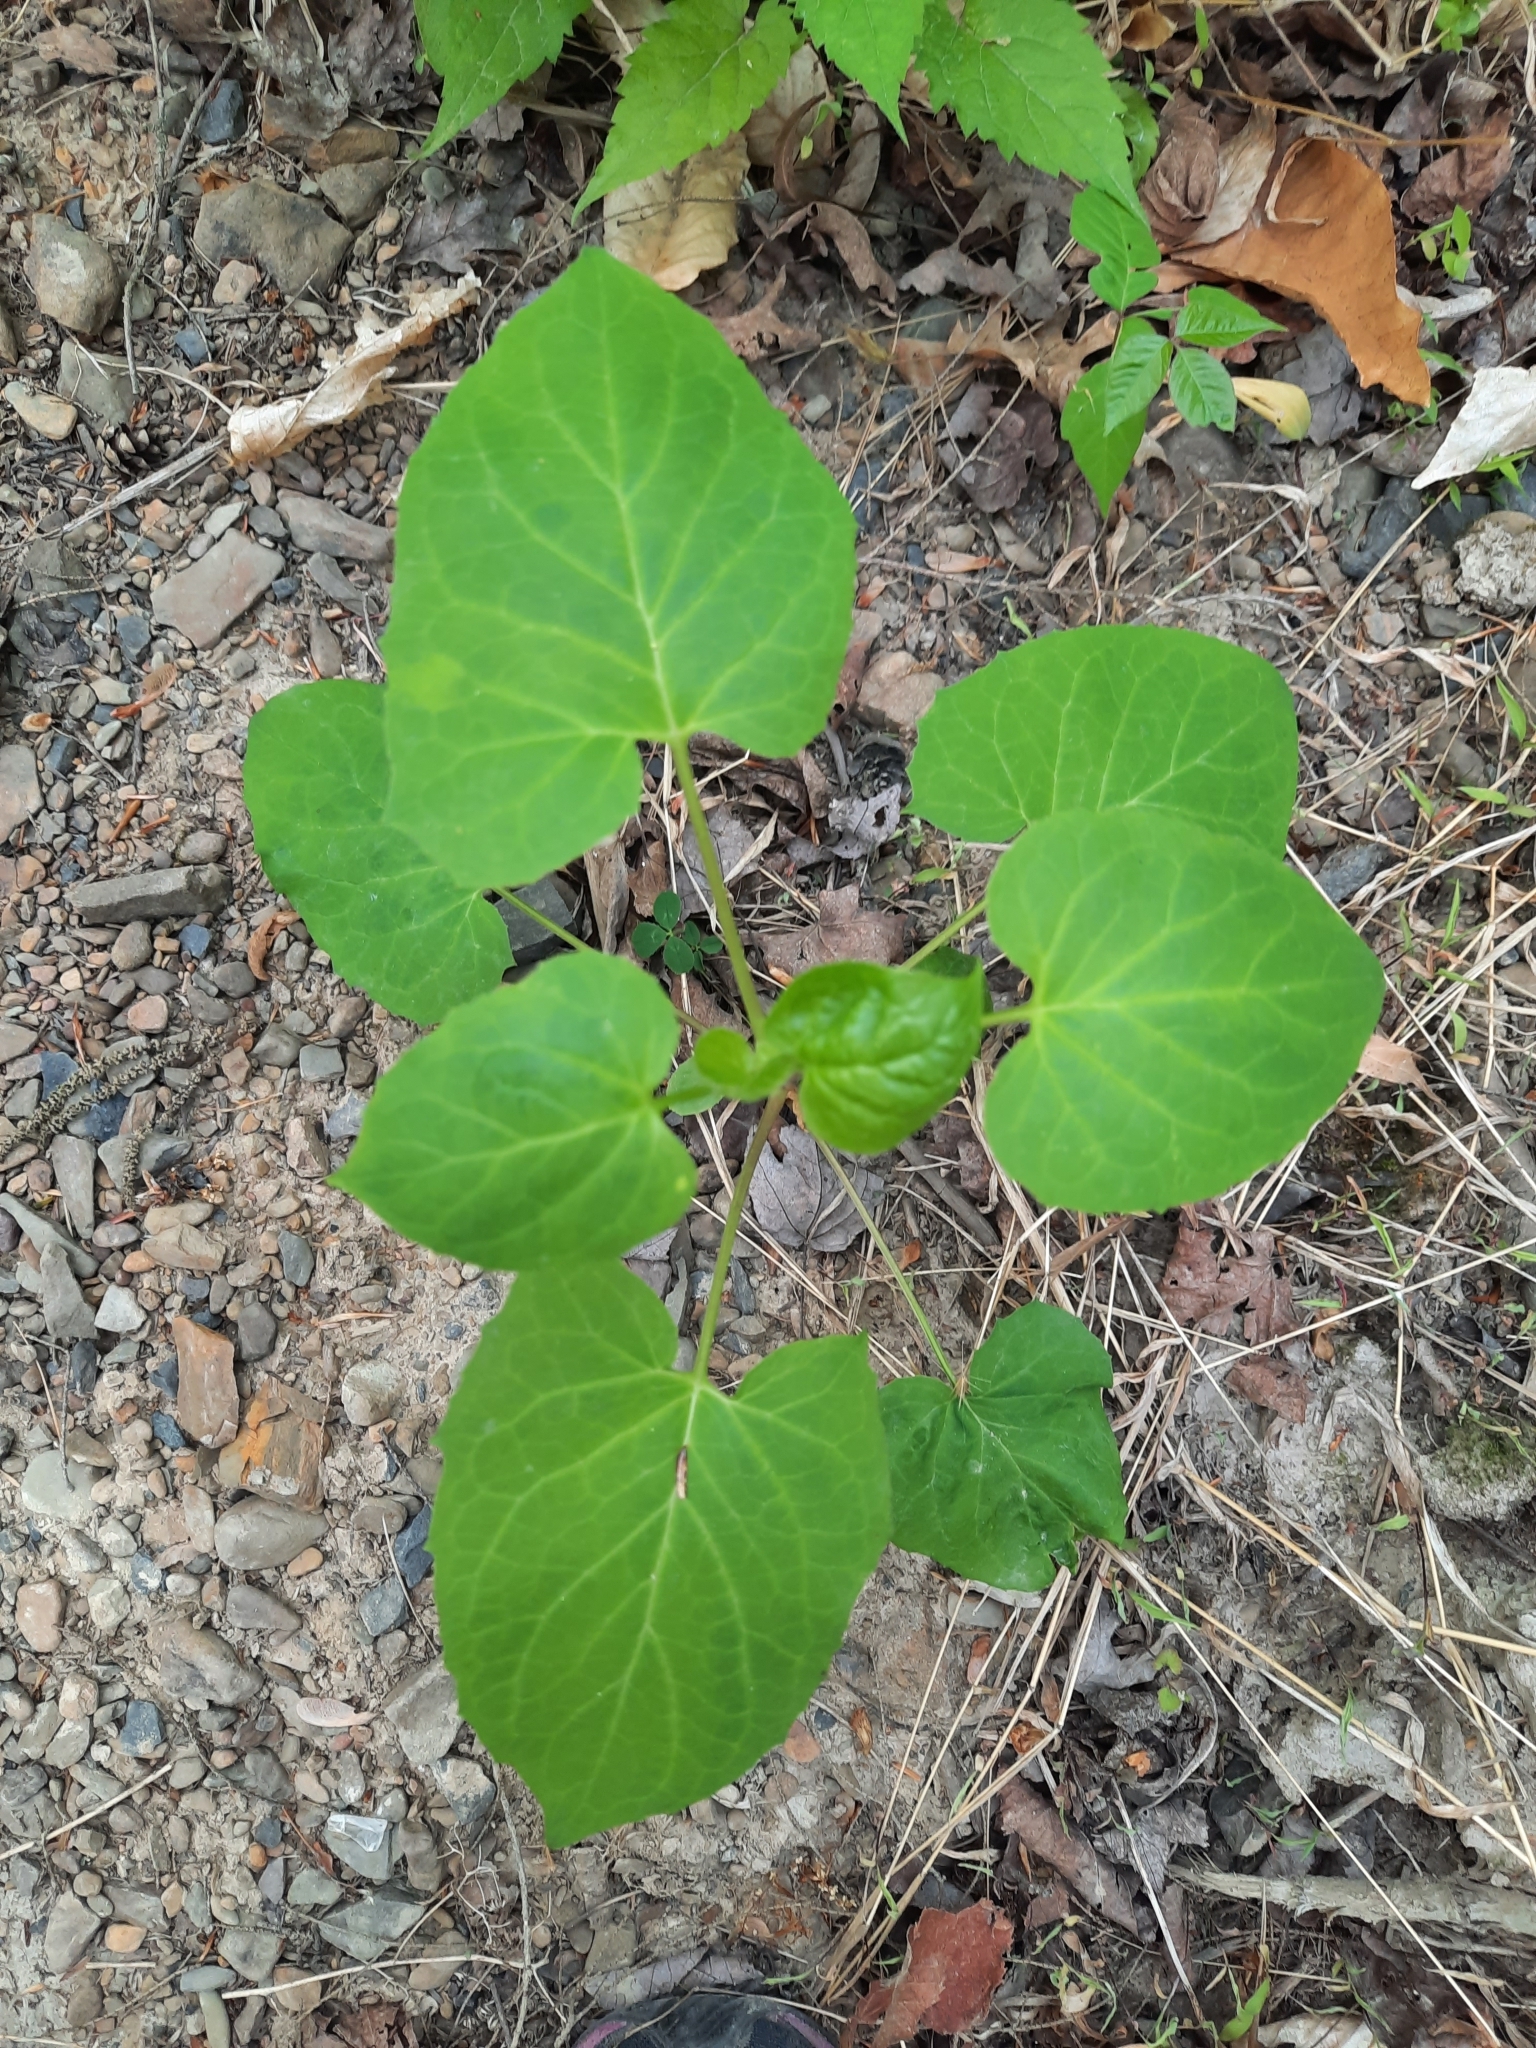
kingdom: Plantae
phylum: Tracheophyta
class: Magnoliopsida
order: Asterales
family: Asteraceae
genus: Nabalus
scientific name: Nabalus
